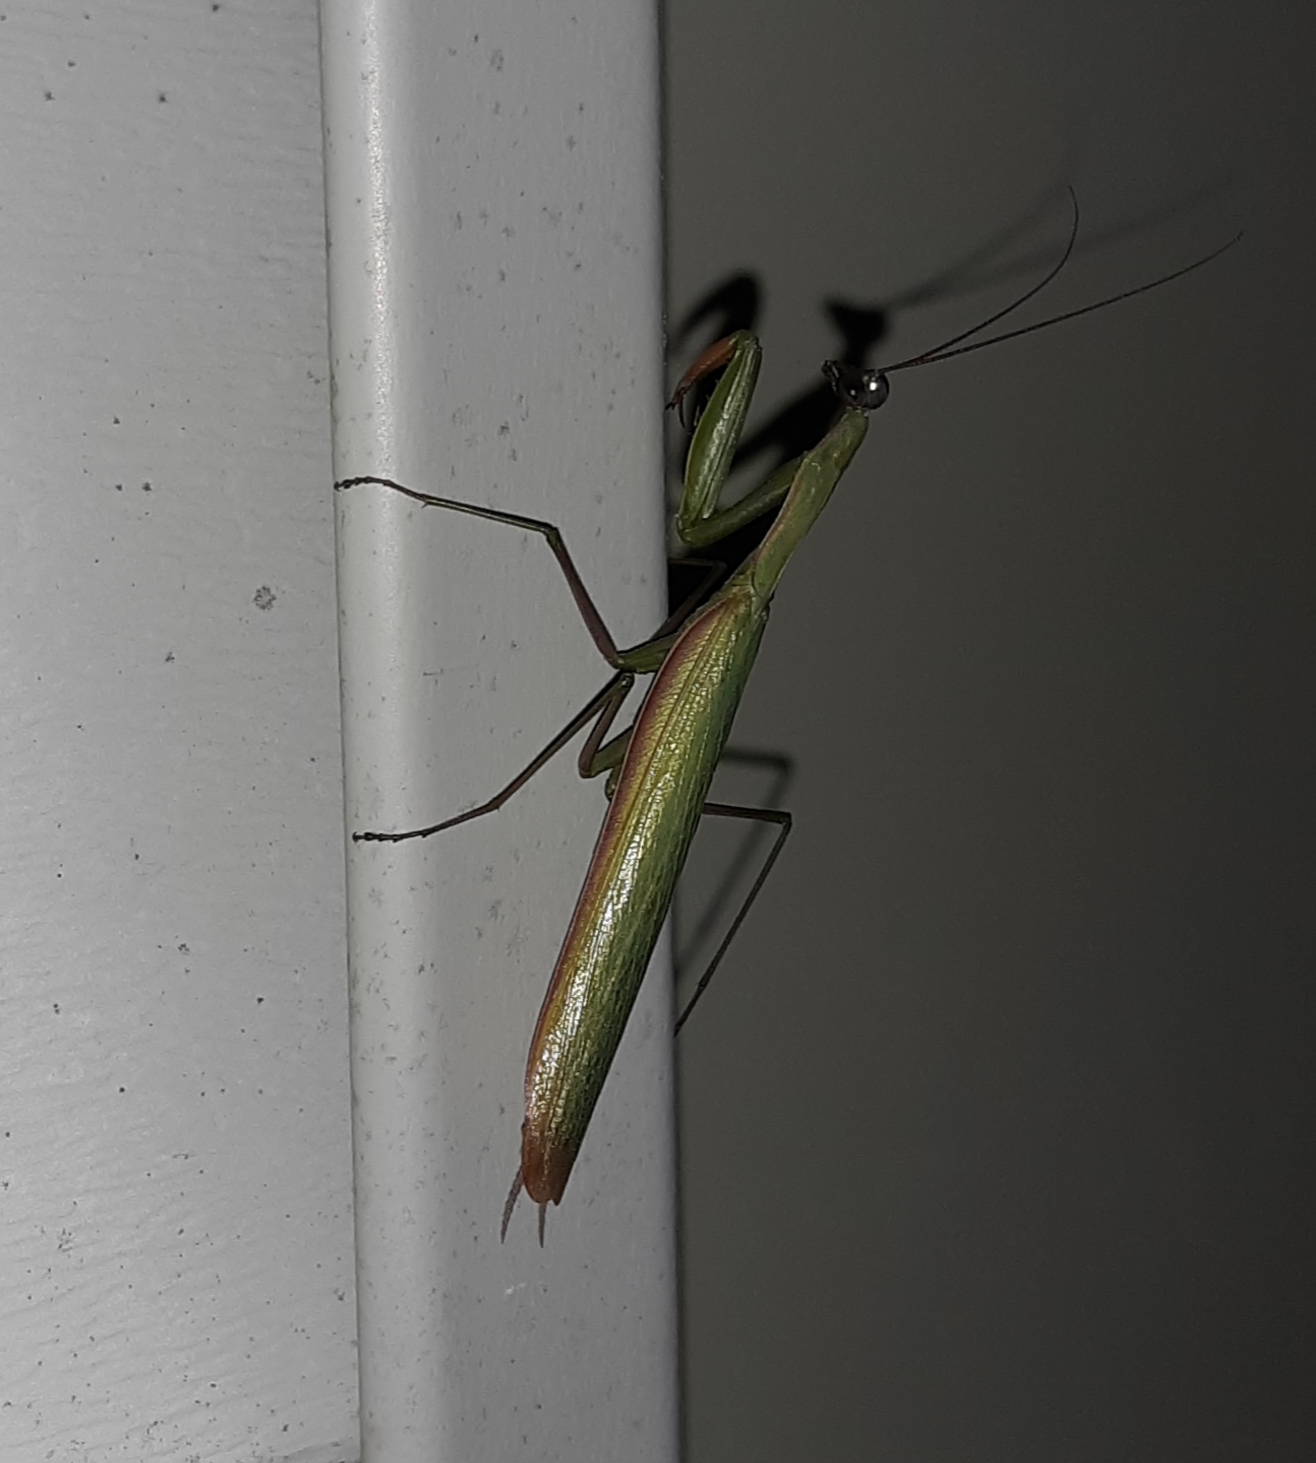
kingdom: Animalia
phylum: Arthropoda
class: Insecta
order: Mantodea
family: Mantidae
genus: Mantis
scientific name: Mantis religiosa
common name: Praying mantis
